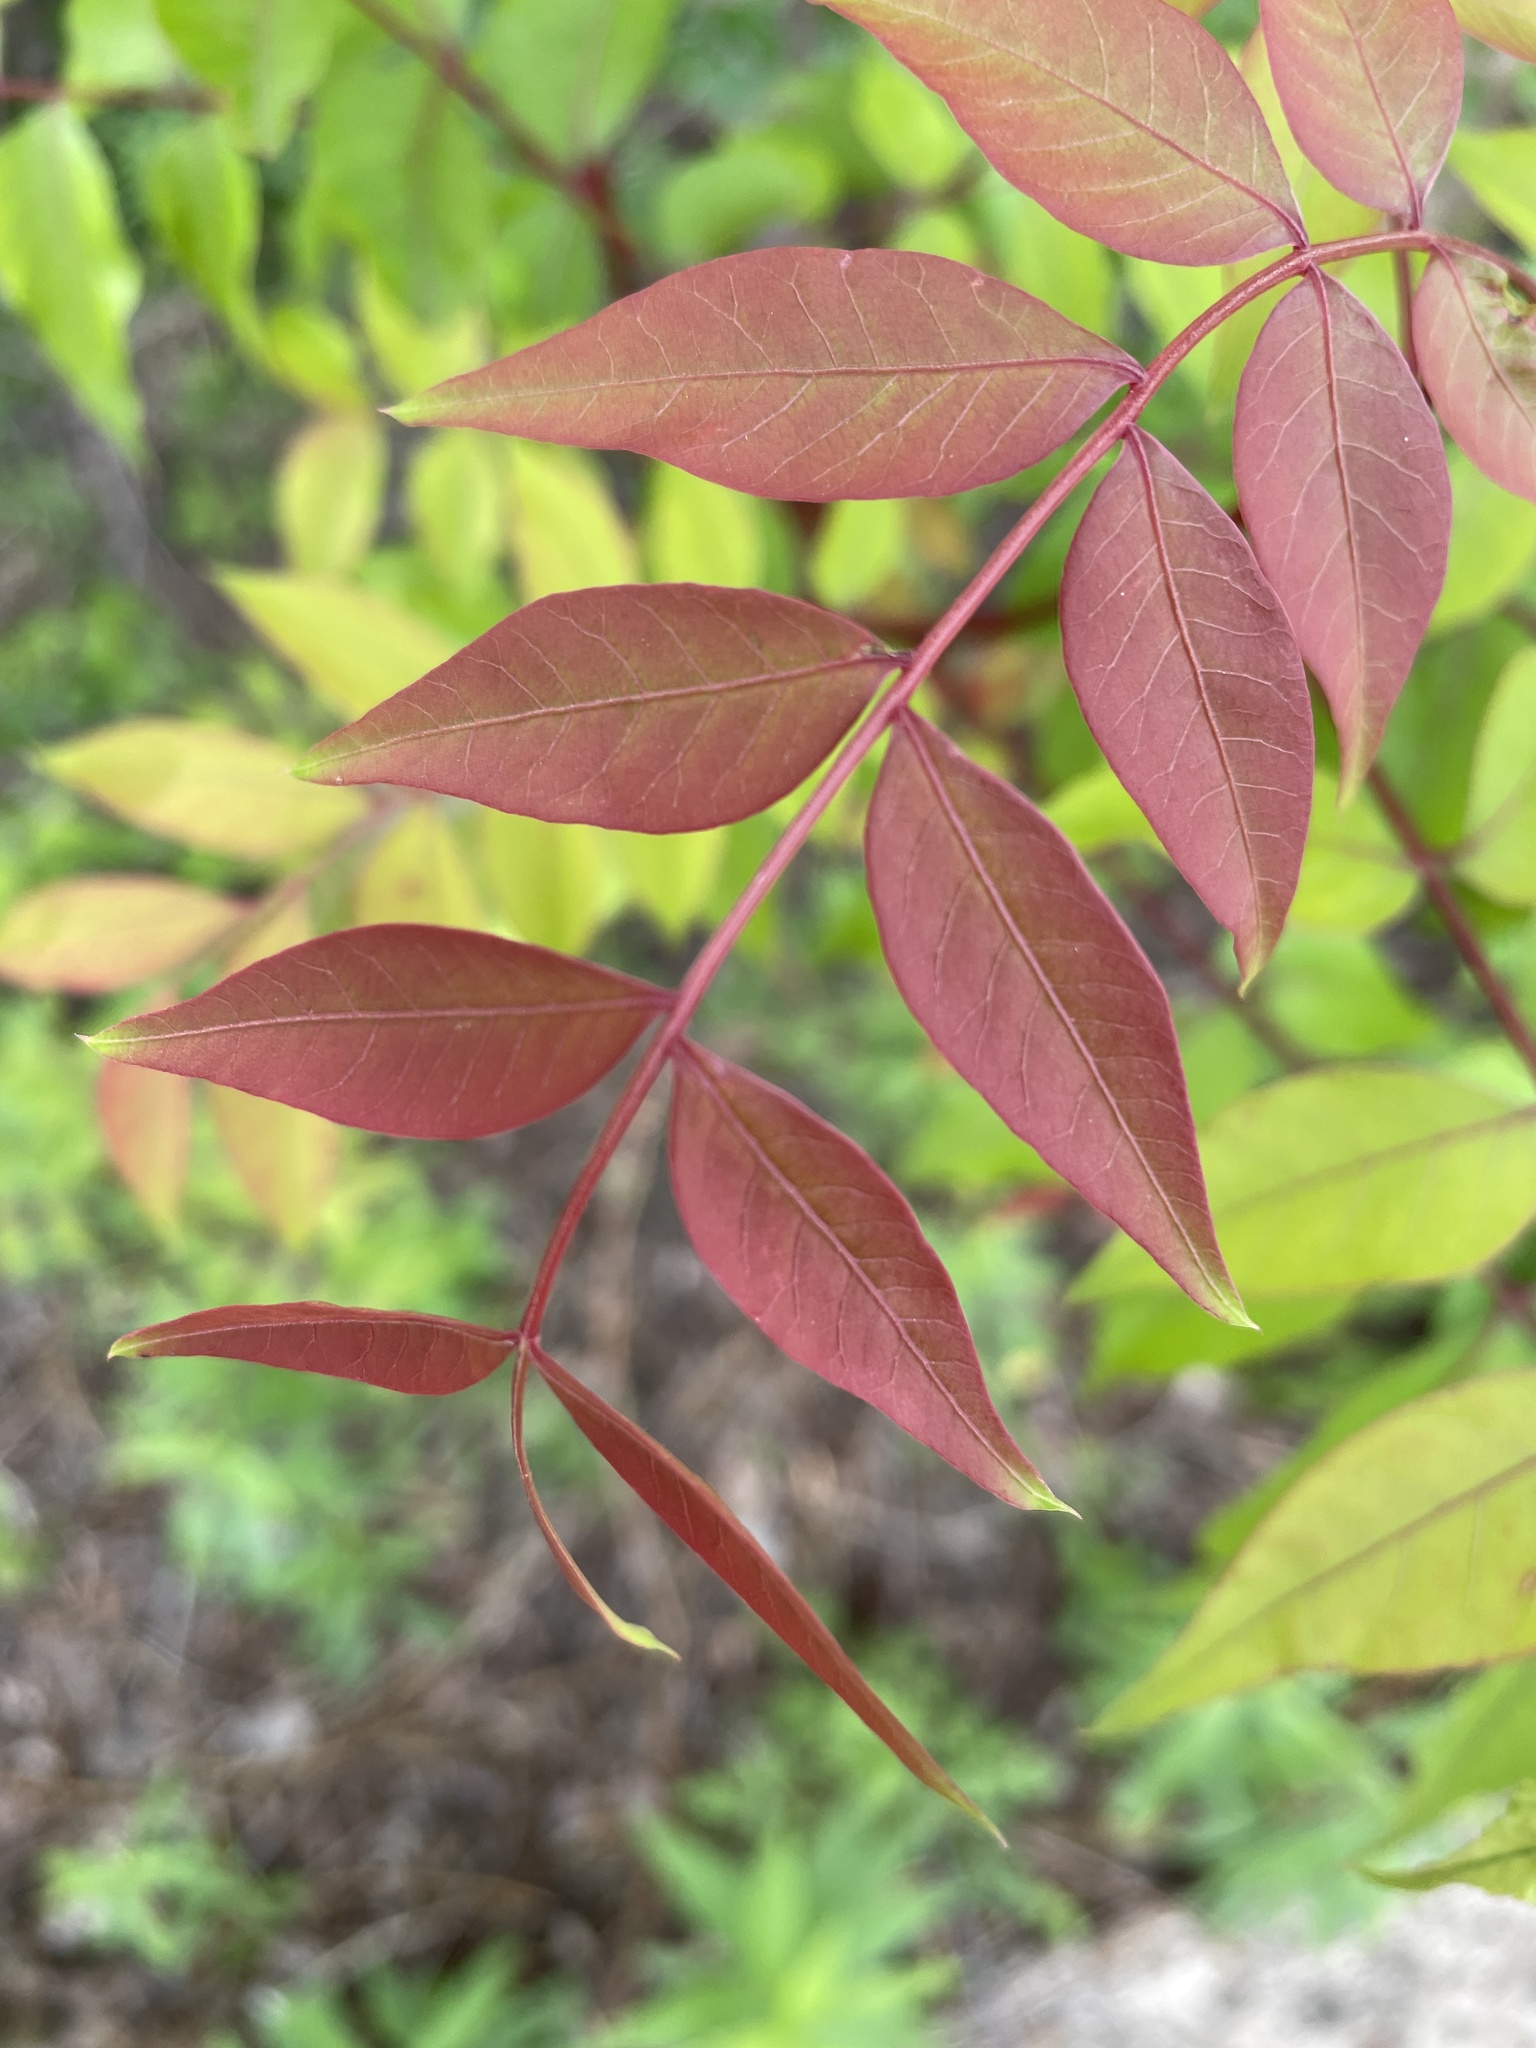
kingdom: Plantae
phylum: Tracheophyta
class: Magnoliopsida
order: Sapindales
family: Anacardiaceae
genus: Pistacia
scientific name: Pistacia chinensis
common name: Chinese pistache
